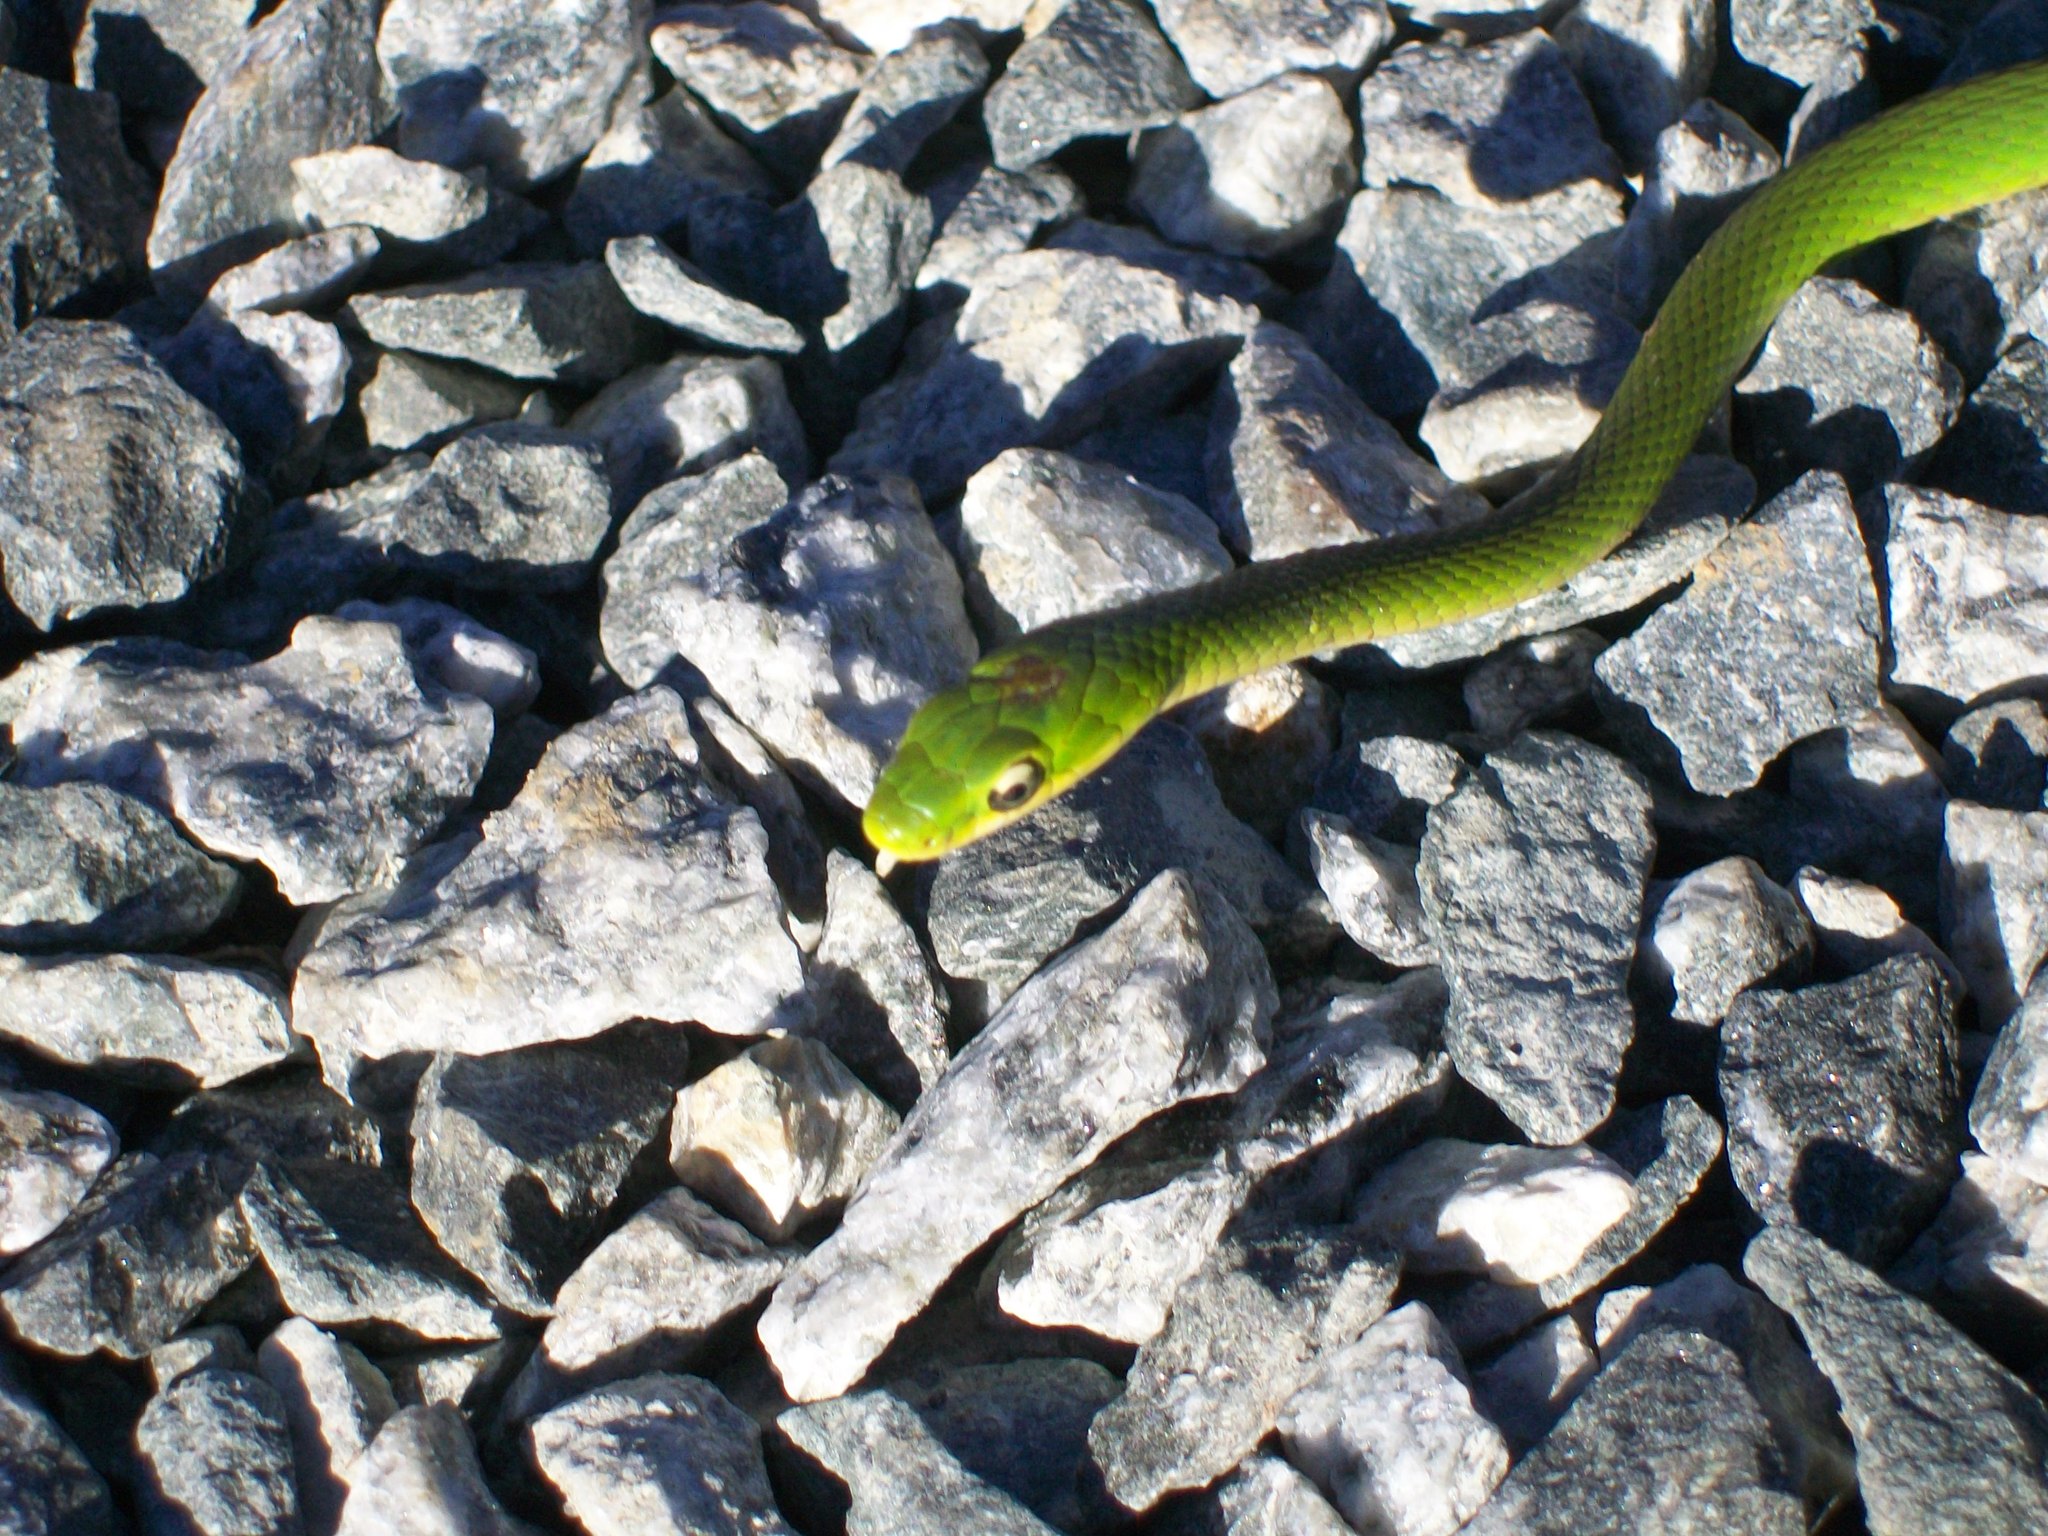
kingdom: Animalia
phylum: Chordata
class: Squamata
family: Colubridae
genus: Opheodrys
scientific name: Opheodrys aestivus
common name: Rough greensnake
